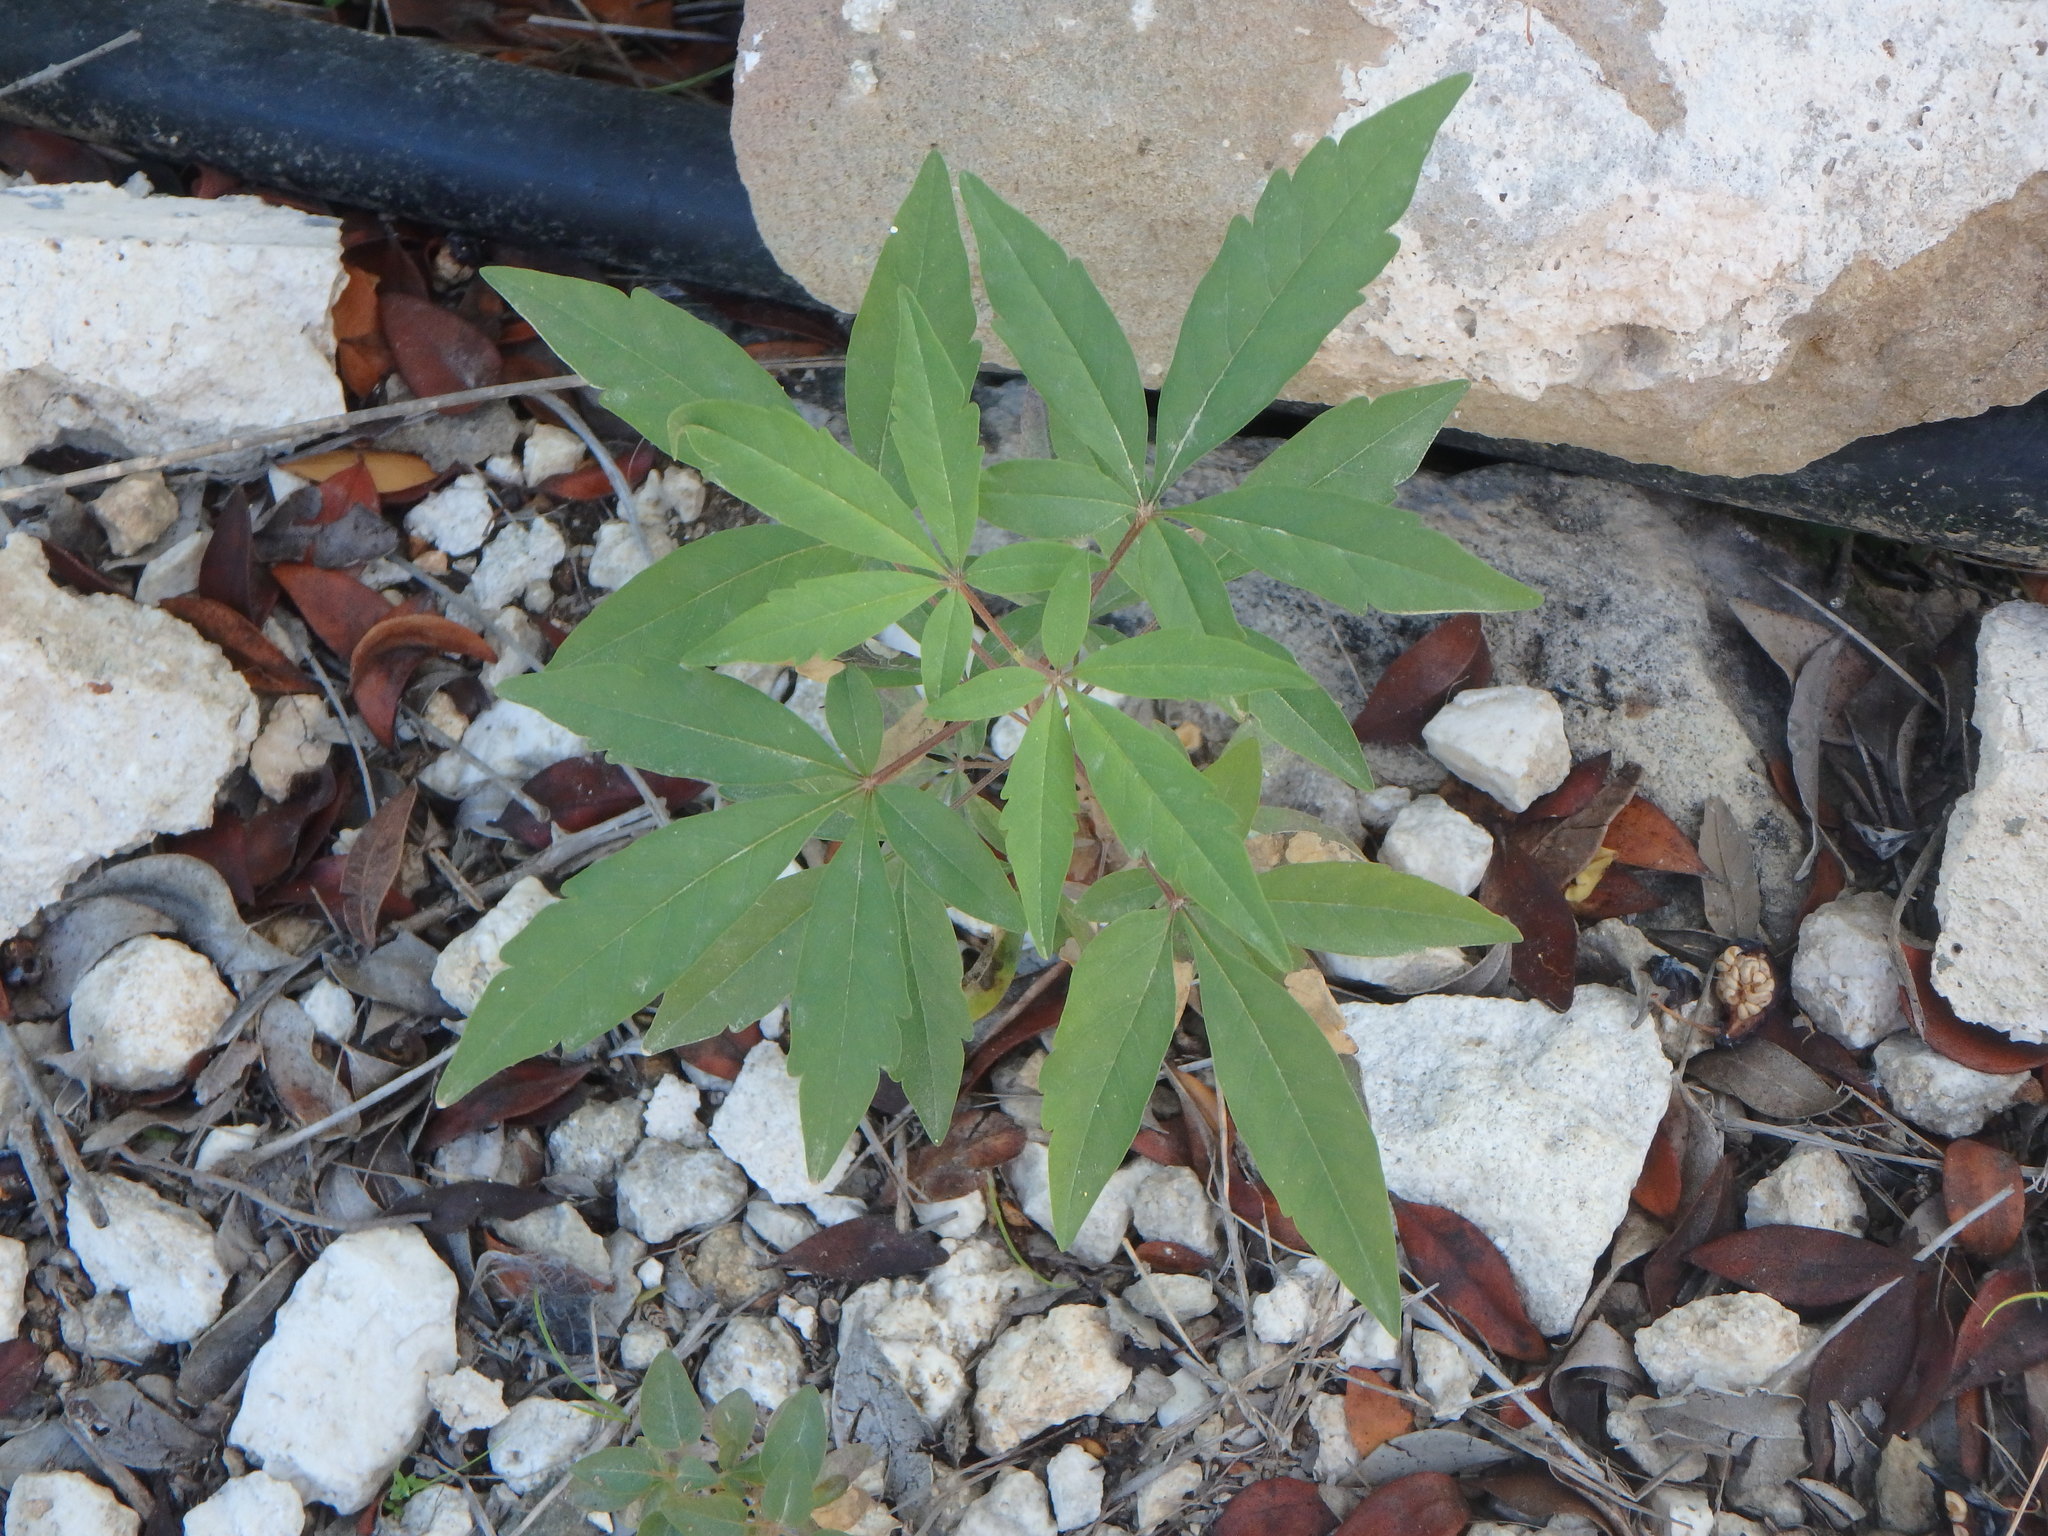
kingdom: Plantae
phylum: Tracheophyta
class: Magnoliopsida
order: Lamiales
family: Lamiaceae
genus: Vitex
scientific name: Vitex agnus-castus
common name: Chasteberry
